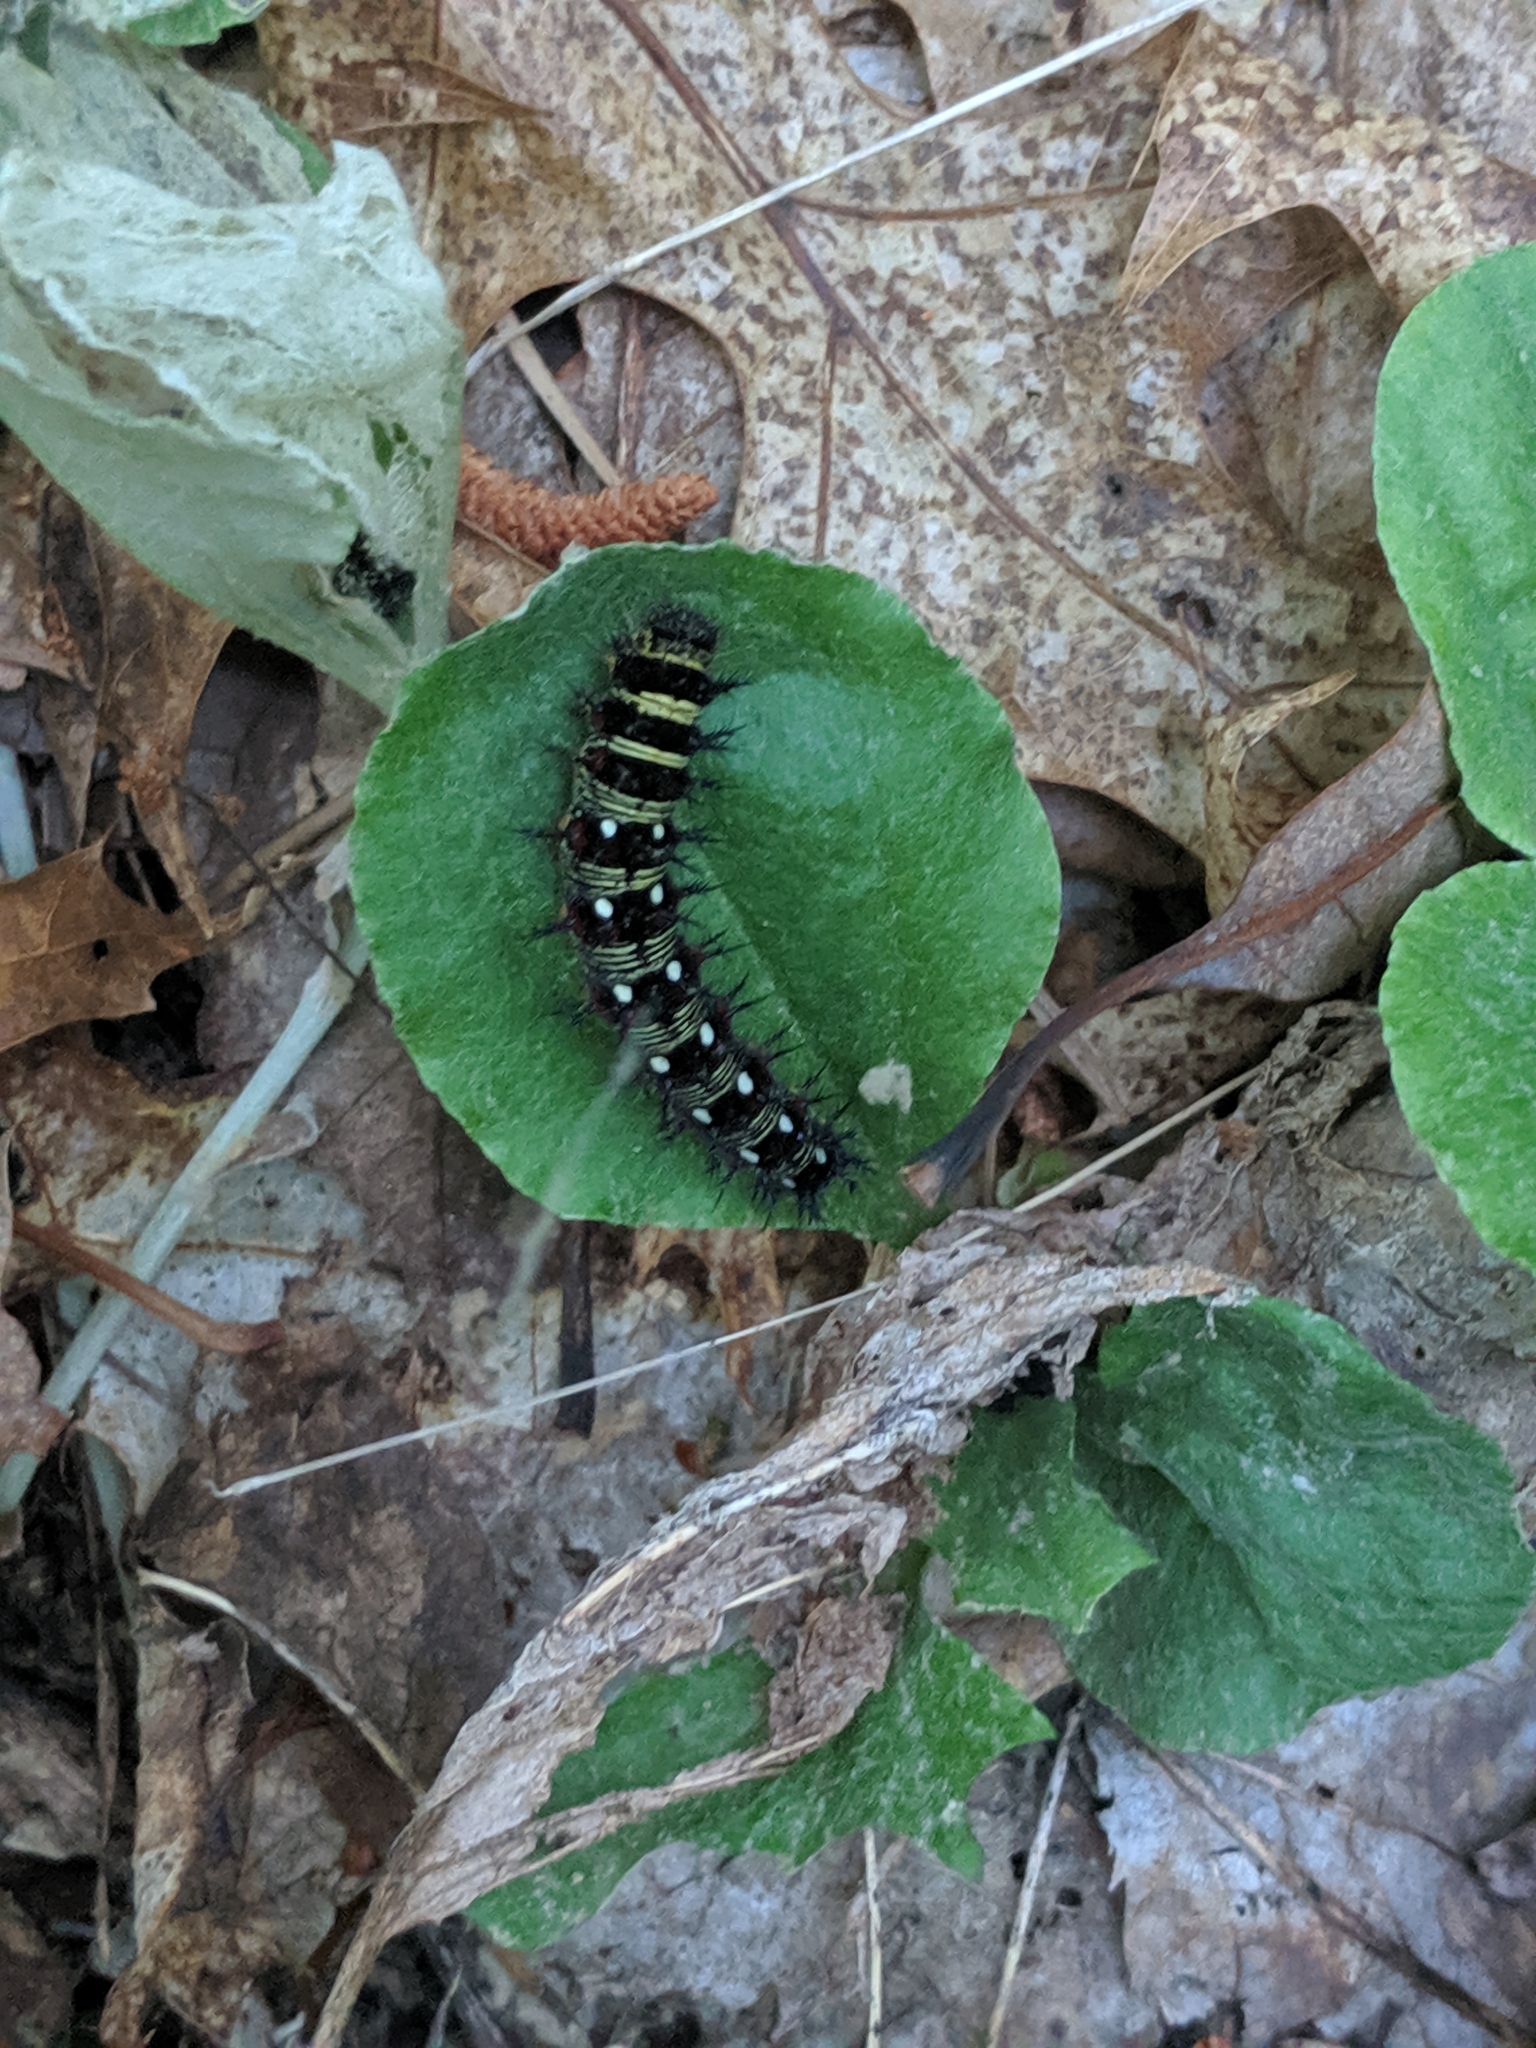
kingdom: Animalia
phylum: Arthropoda
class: Insecta
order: Lepidoptera
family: Nymphalidae
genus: Vanessa
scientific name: Vanessa virginiensis
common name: American lady
